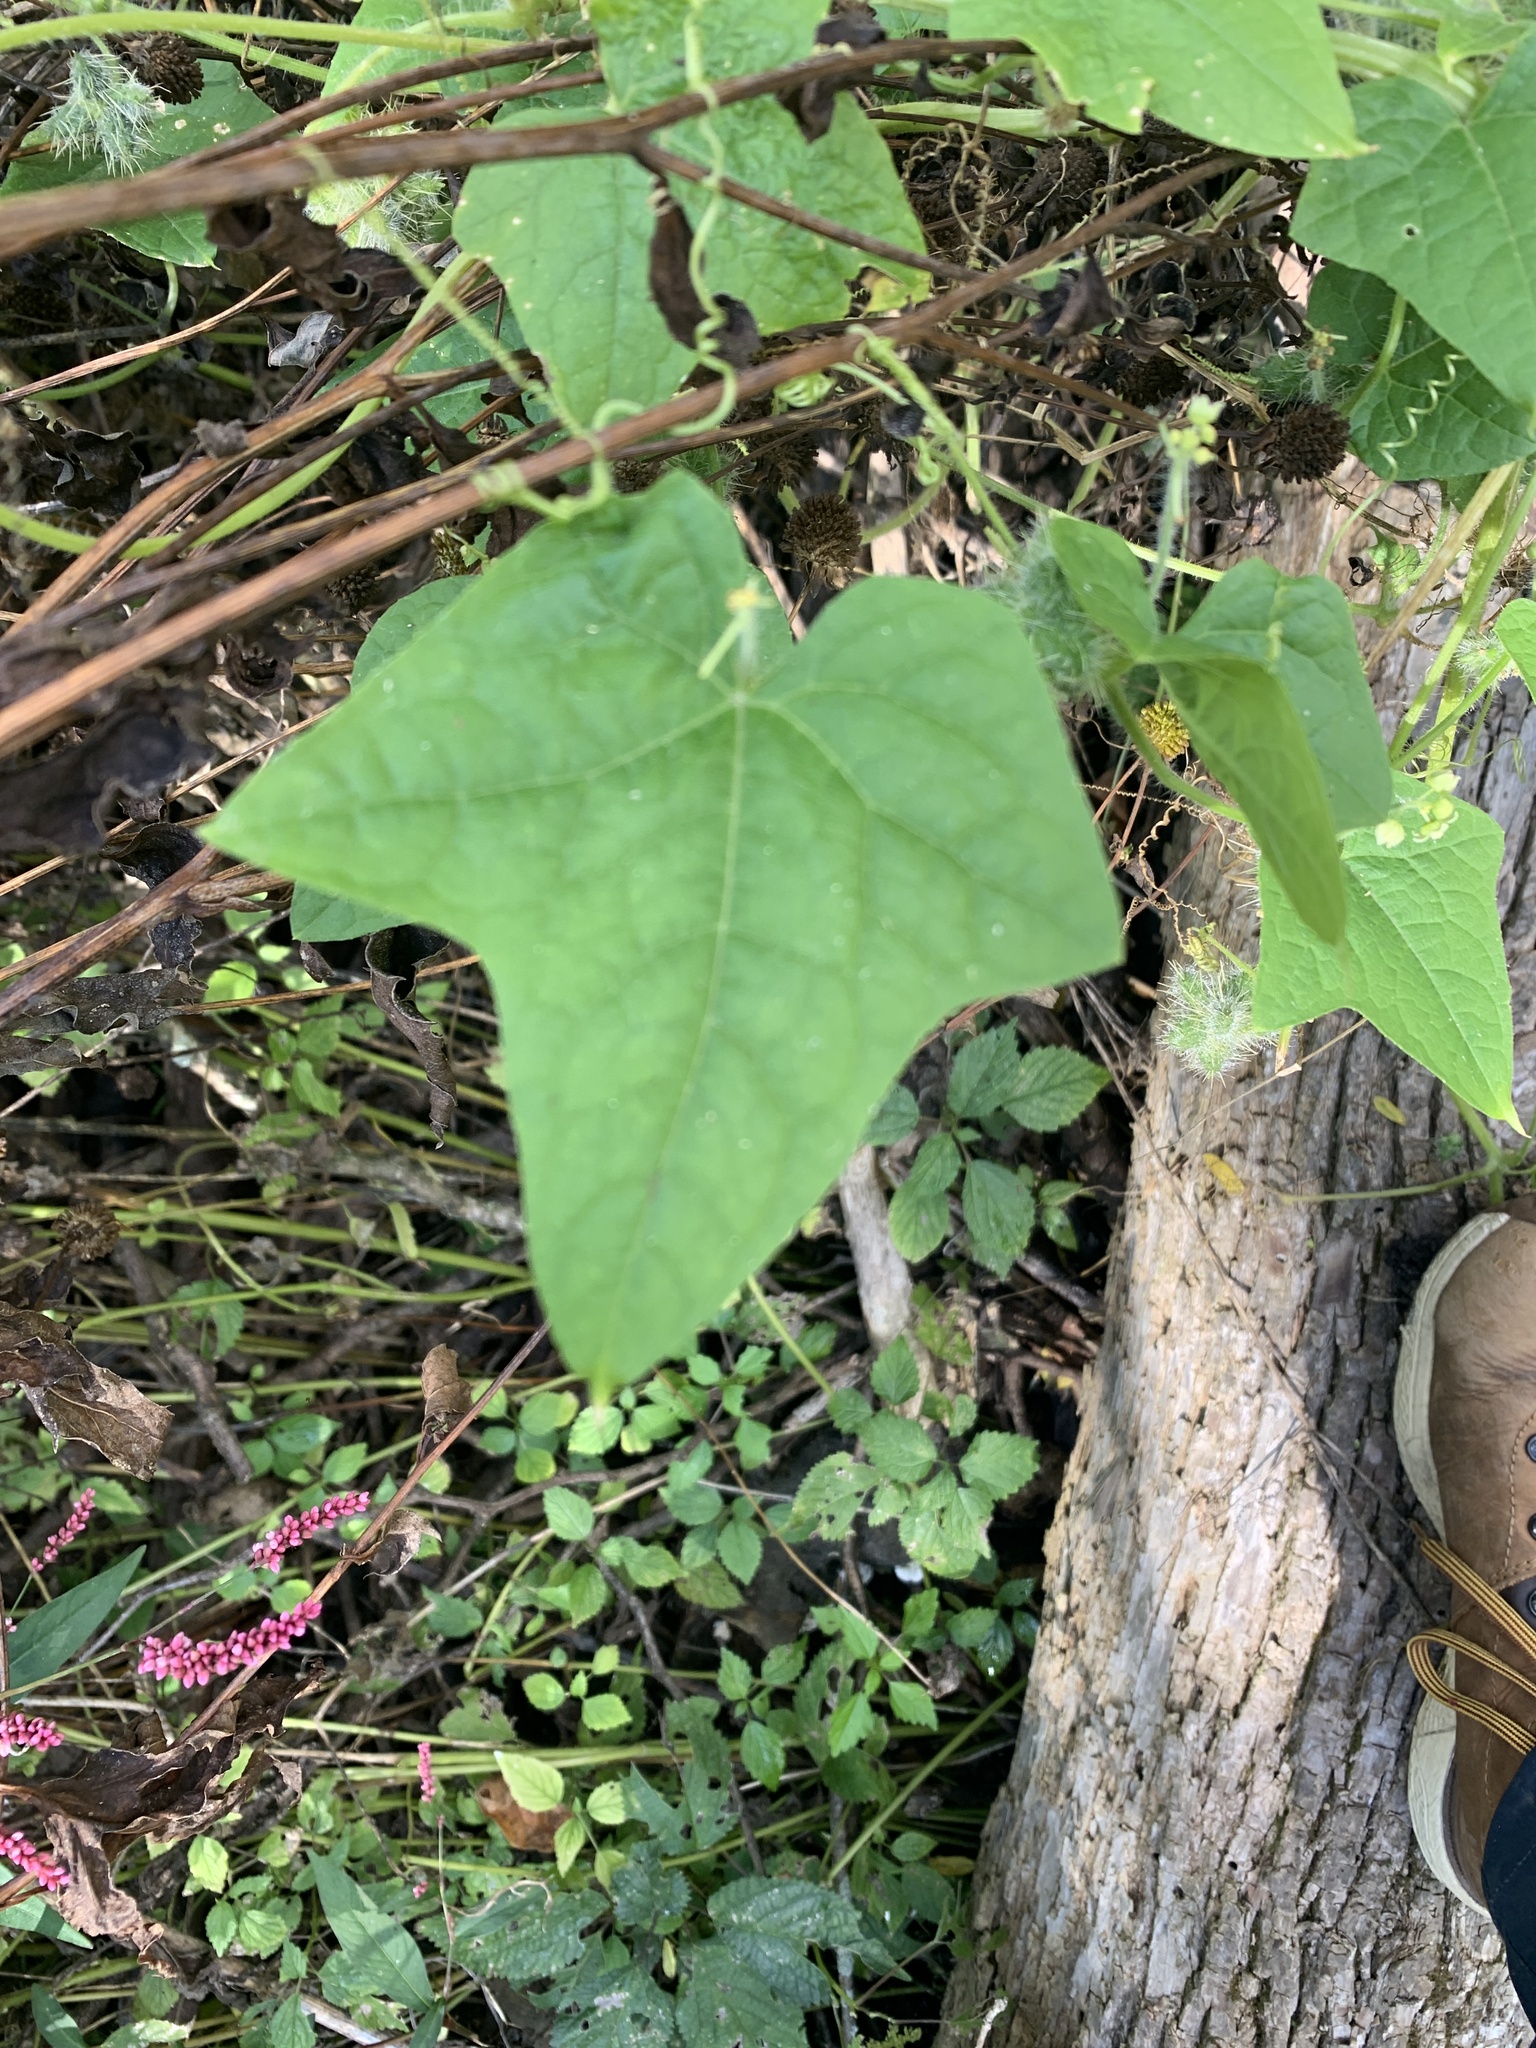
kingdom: Plantae
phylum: Tracheophyta
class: Magnoliopsida
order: Cucurbitales
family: Cucurbitaceae
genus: Sicyos
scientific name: Sicyos angulatus
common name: Angled burr cucumber
